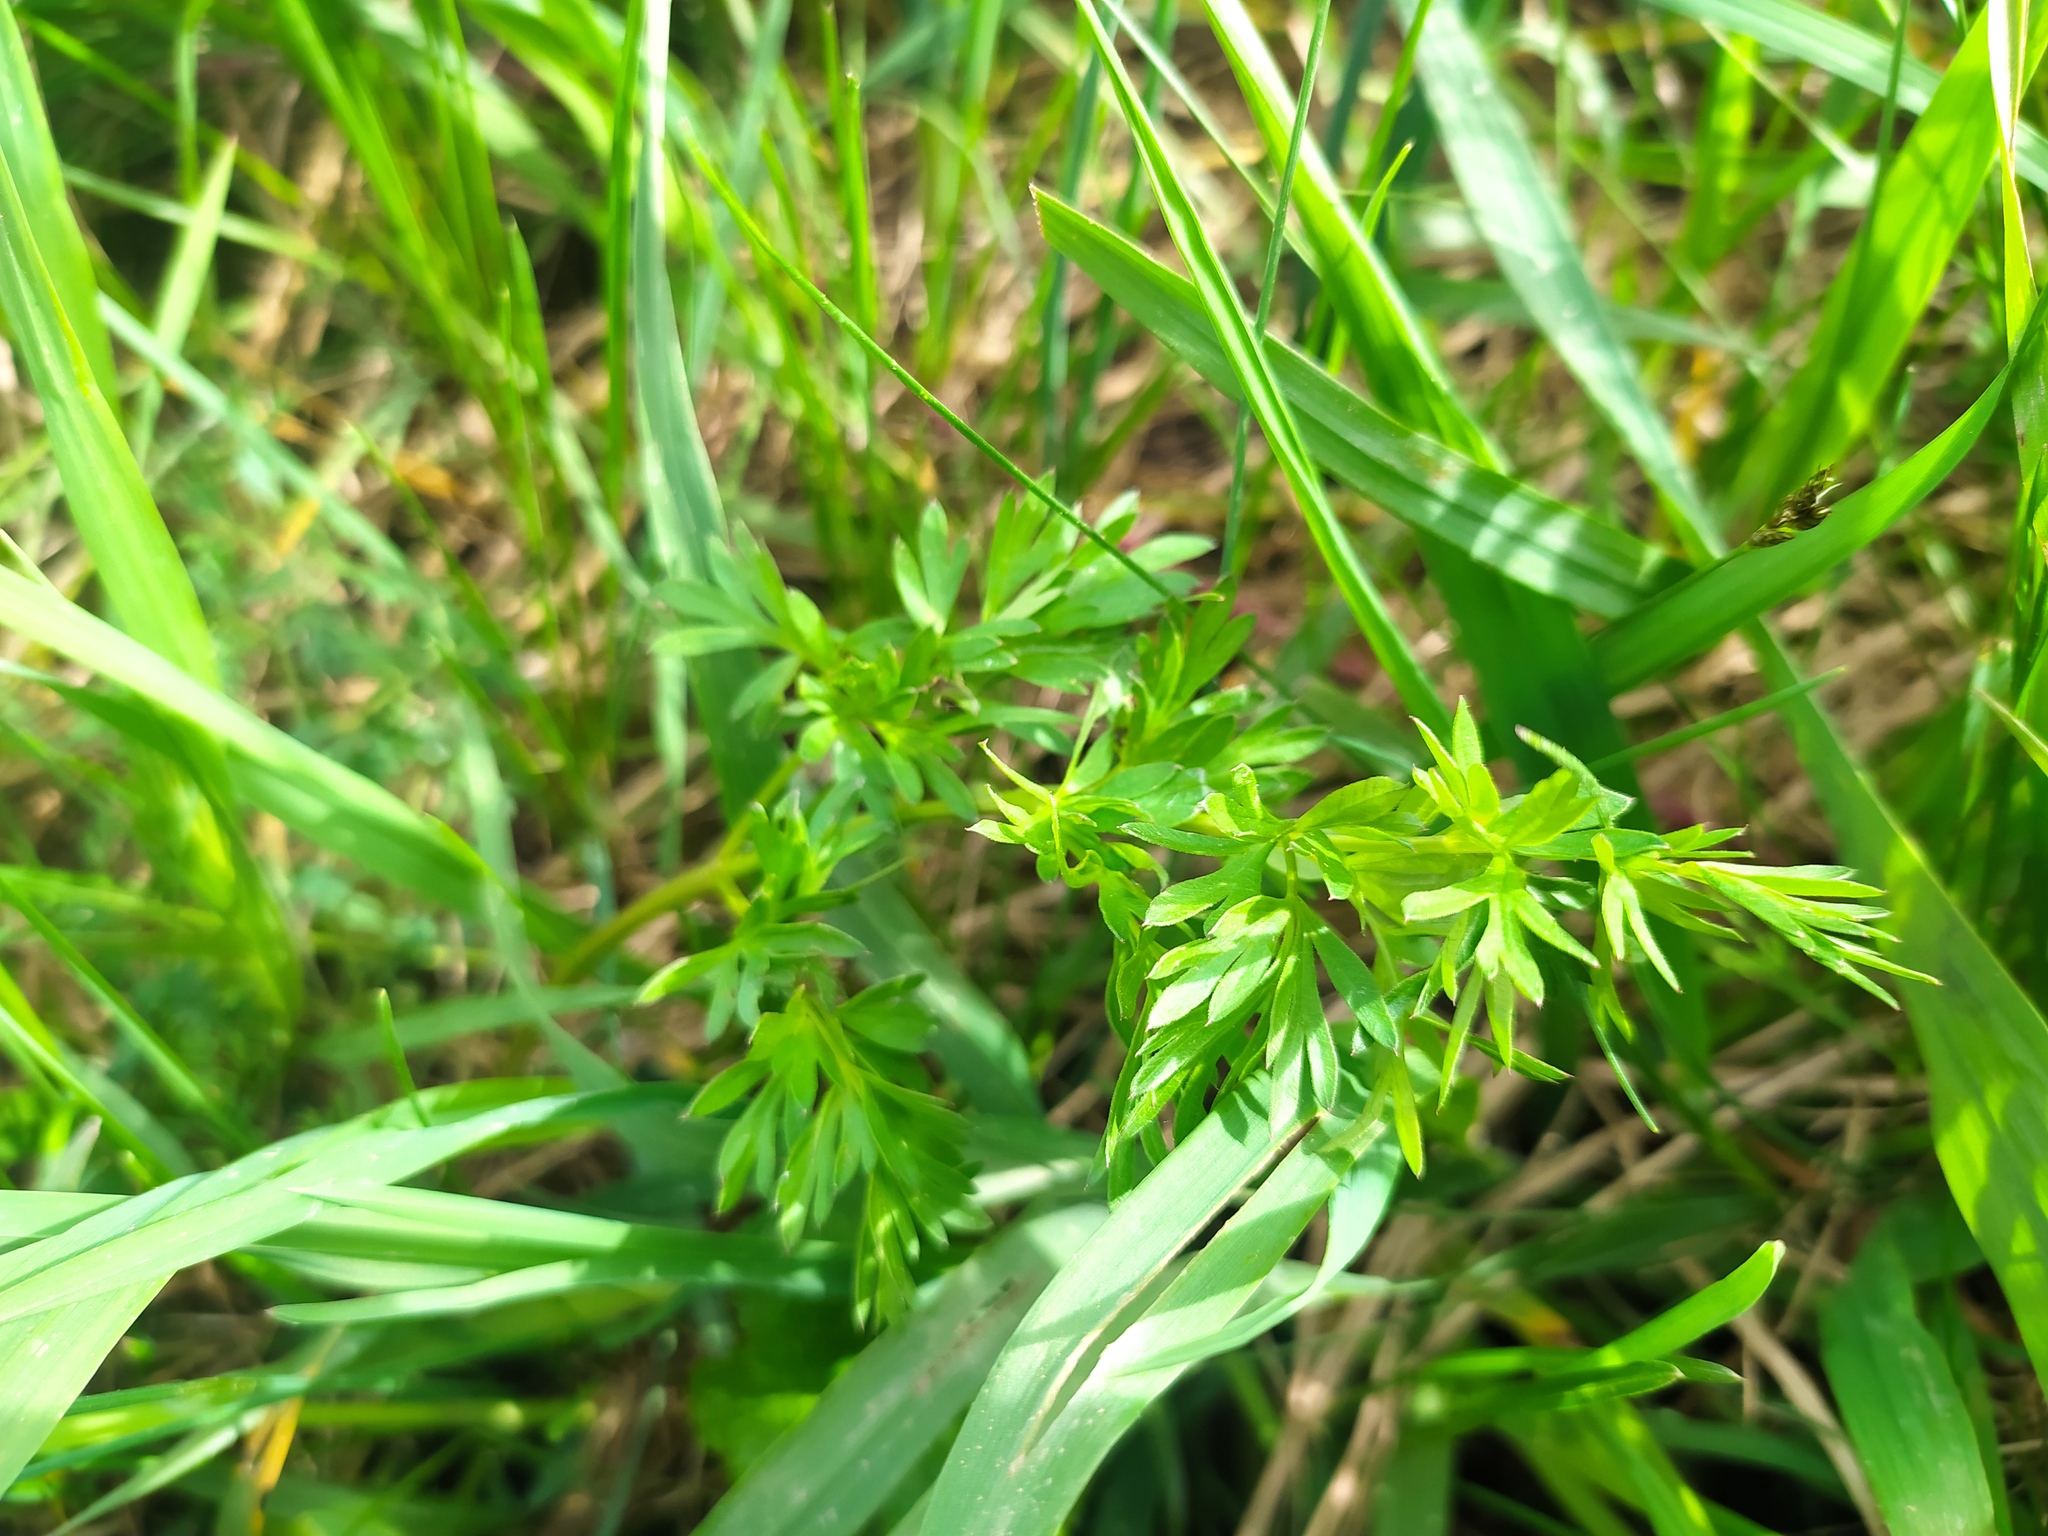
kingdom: Plantae
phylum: Tracheophyta
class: Magnoliopsida
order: Apiales
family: Apiaceae
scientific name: Apiaceae
